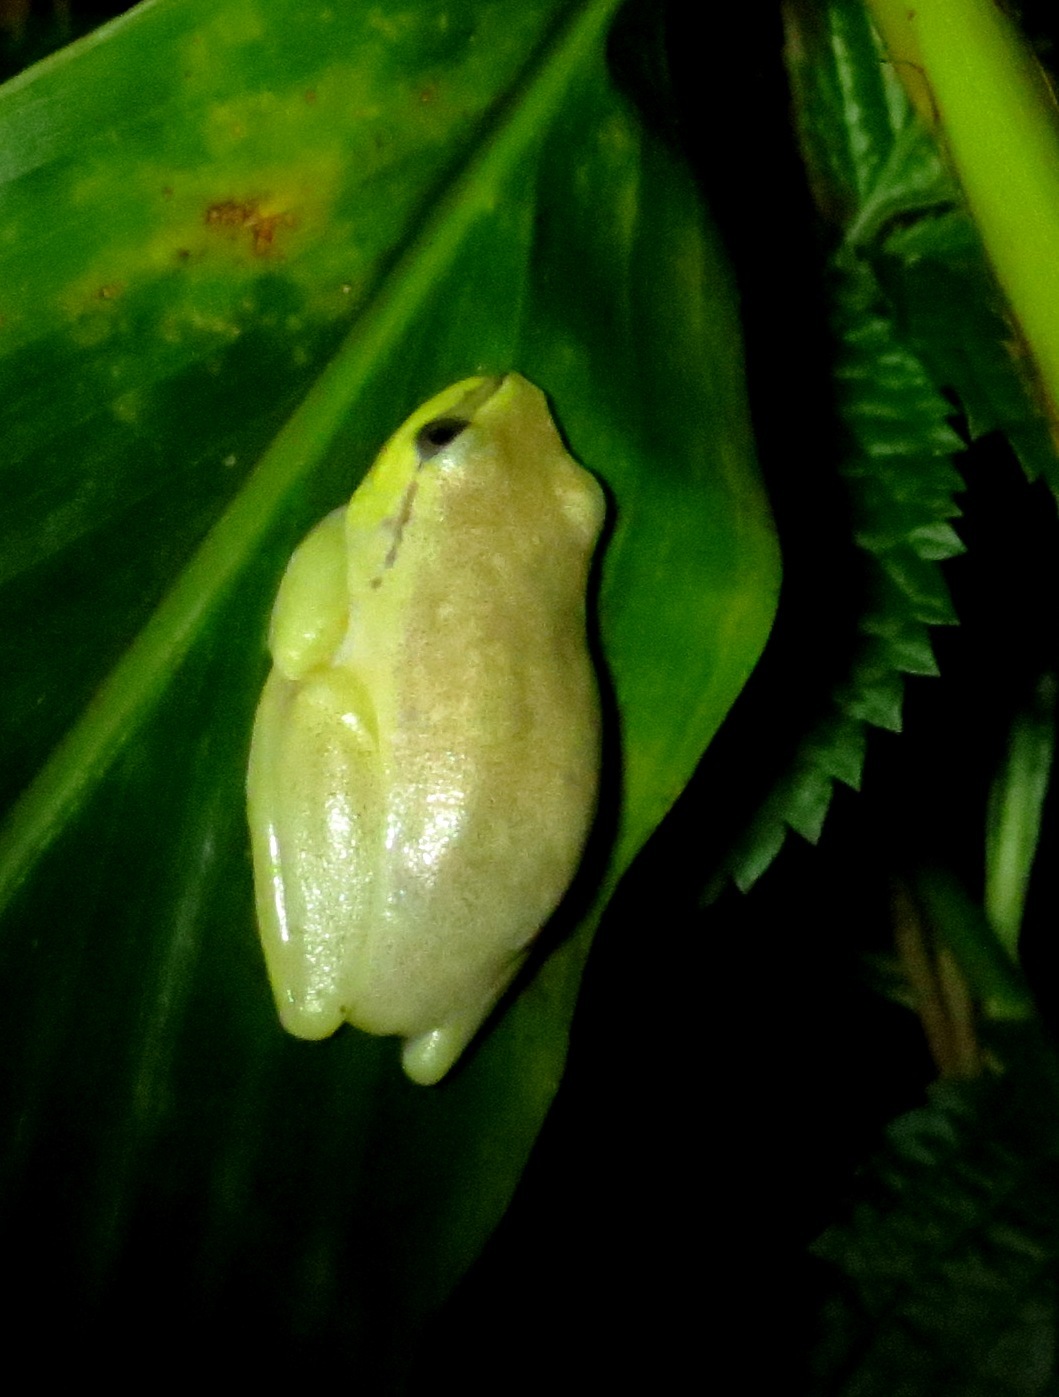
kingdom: Animalia
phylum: Chordata
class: Amphibia
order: Anura
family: Hyperoliidae
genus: Heterixalus
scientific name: Heterixalus madagascariensis
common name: Madagascar reed frog
